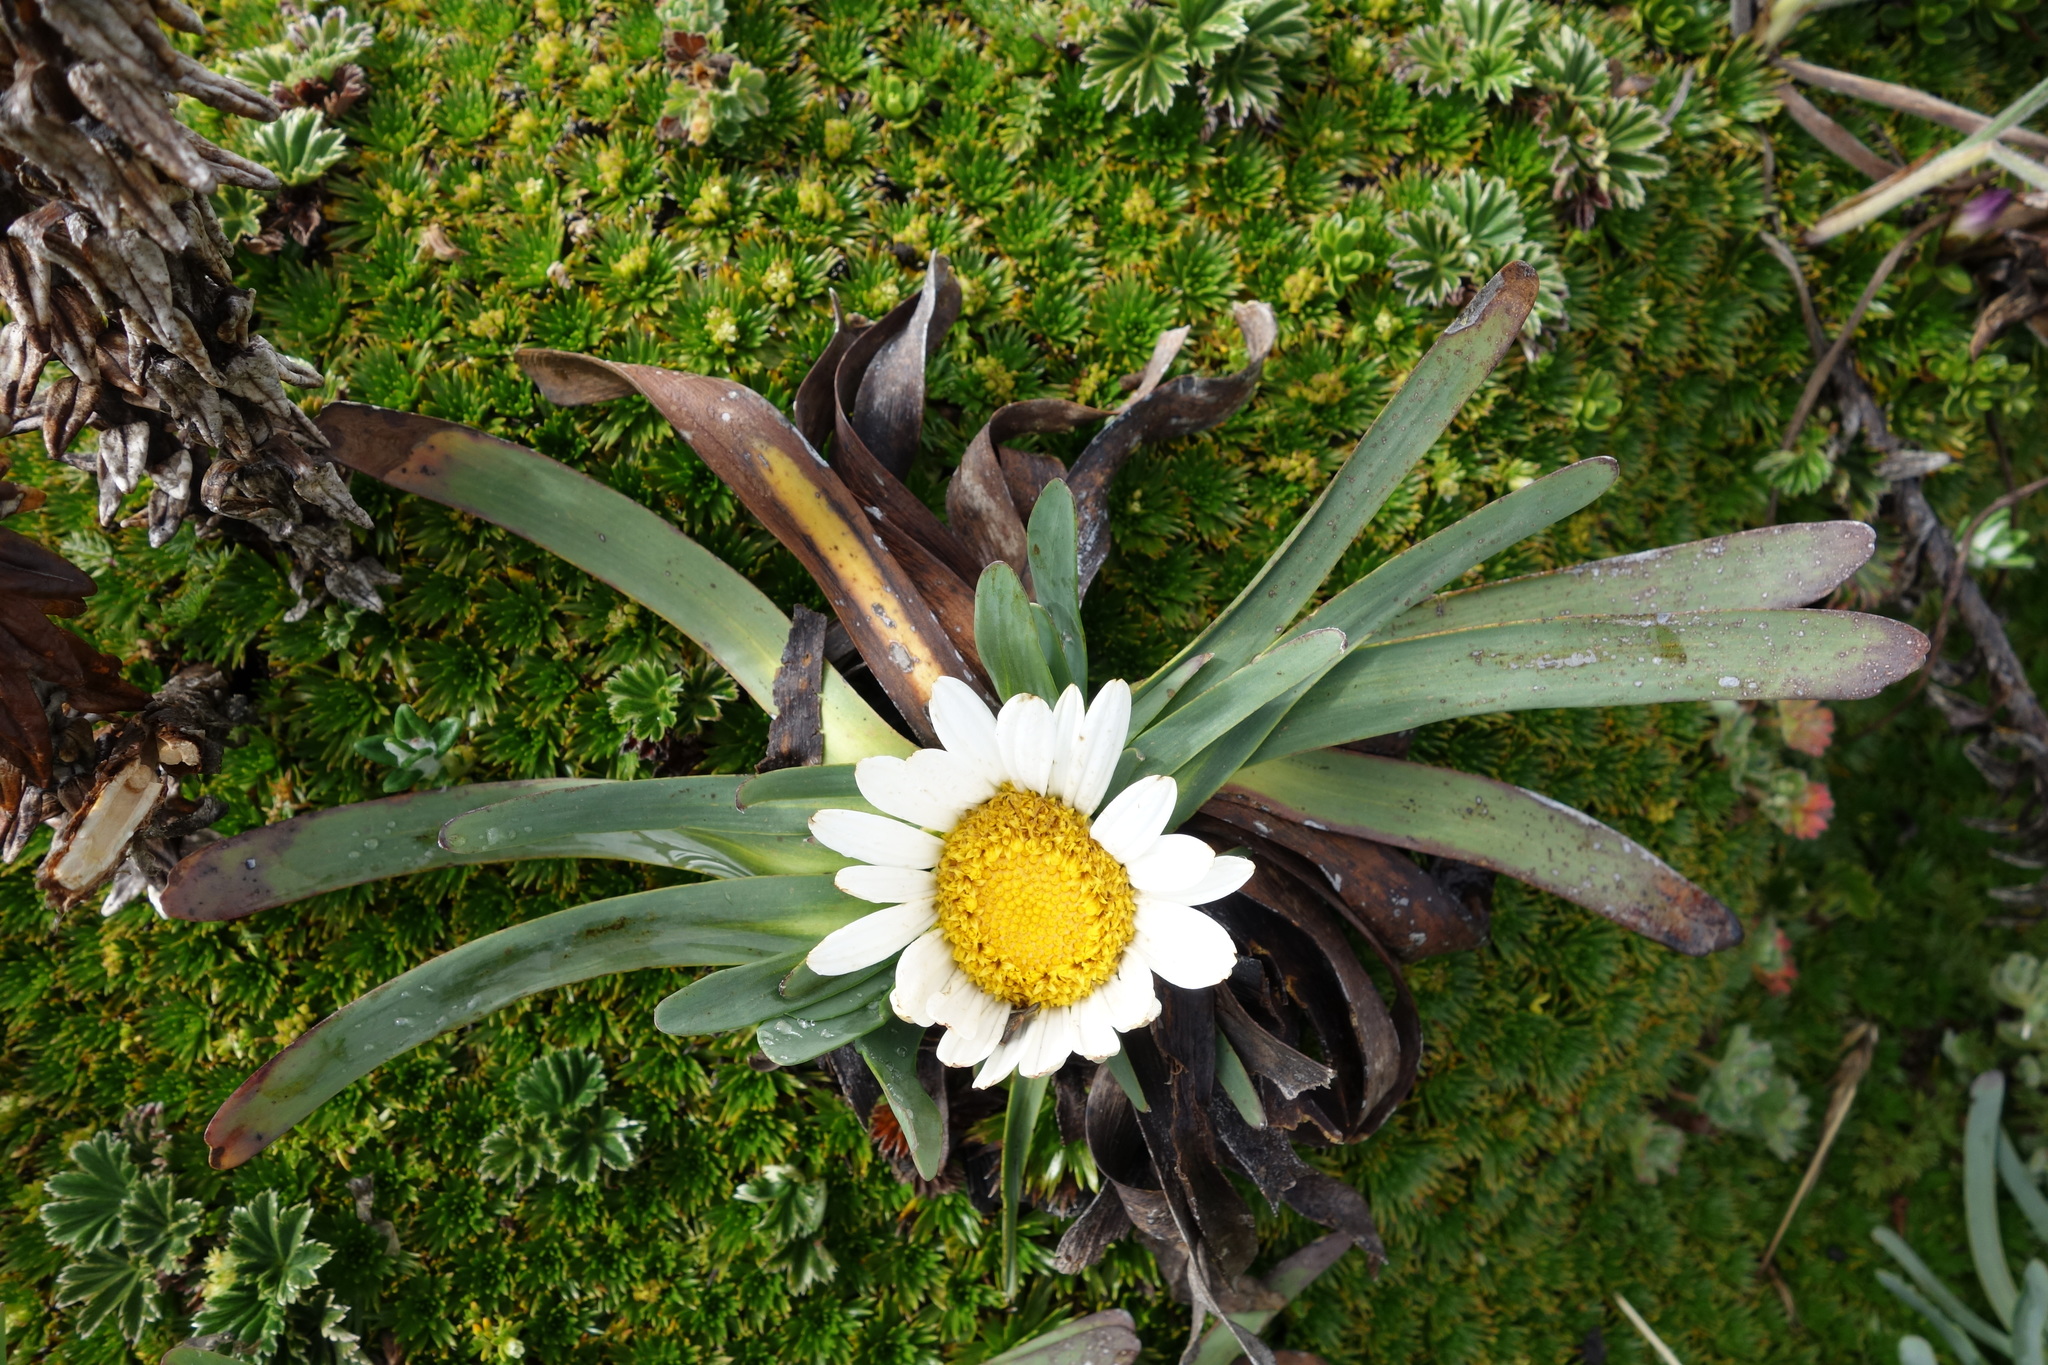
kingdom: Plantae
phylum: Tracheophyta
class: Magnoliopsida
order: Asterales
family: Asteraceae
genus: Rockhausenia
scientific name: Rockhausenia nubigena
